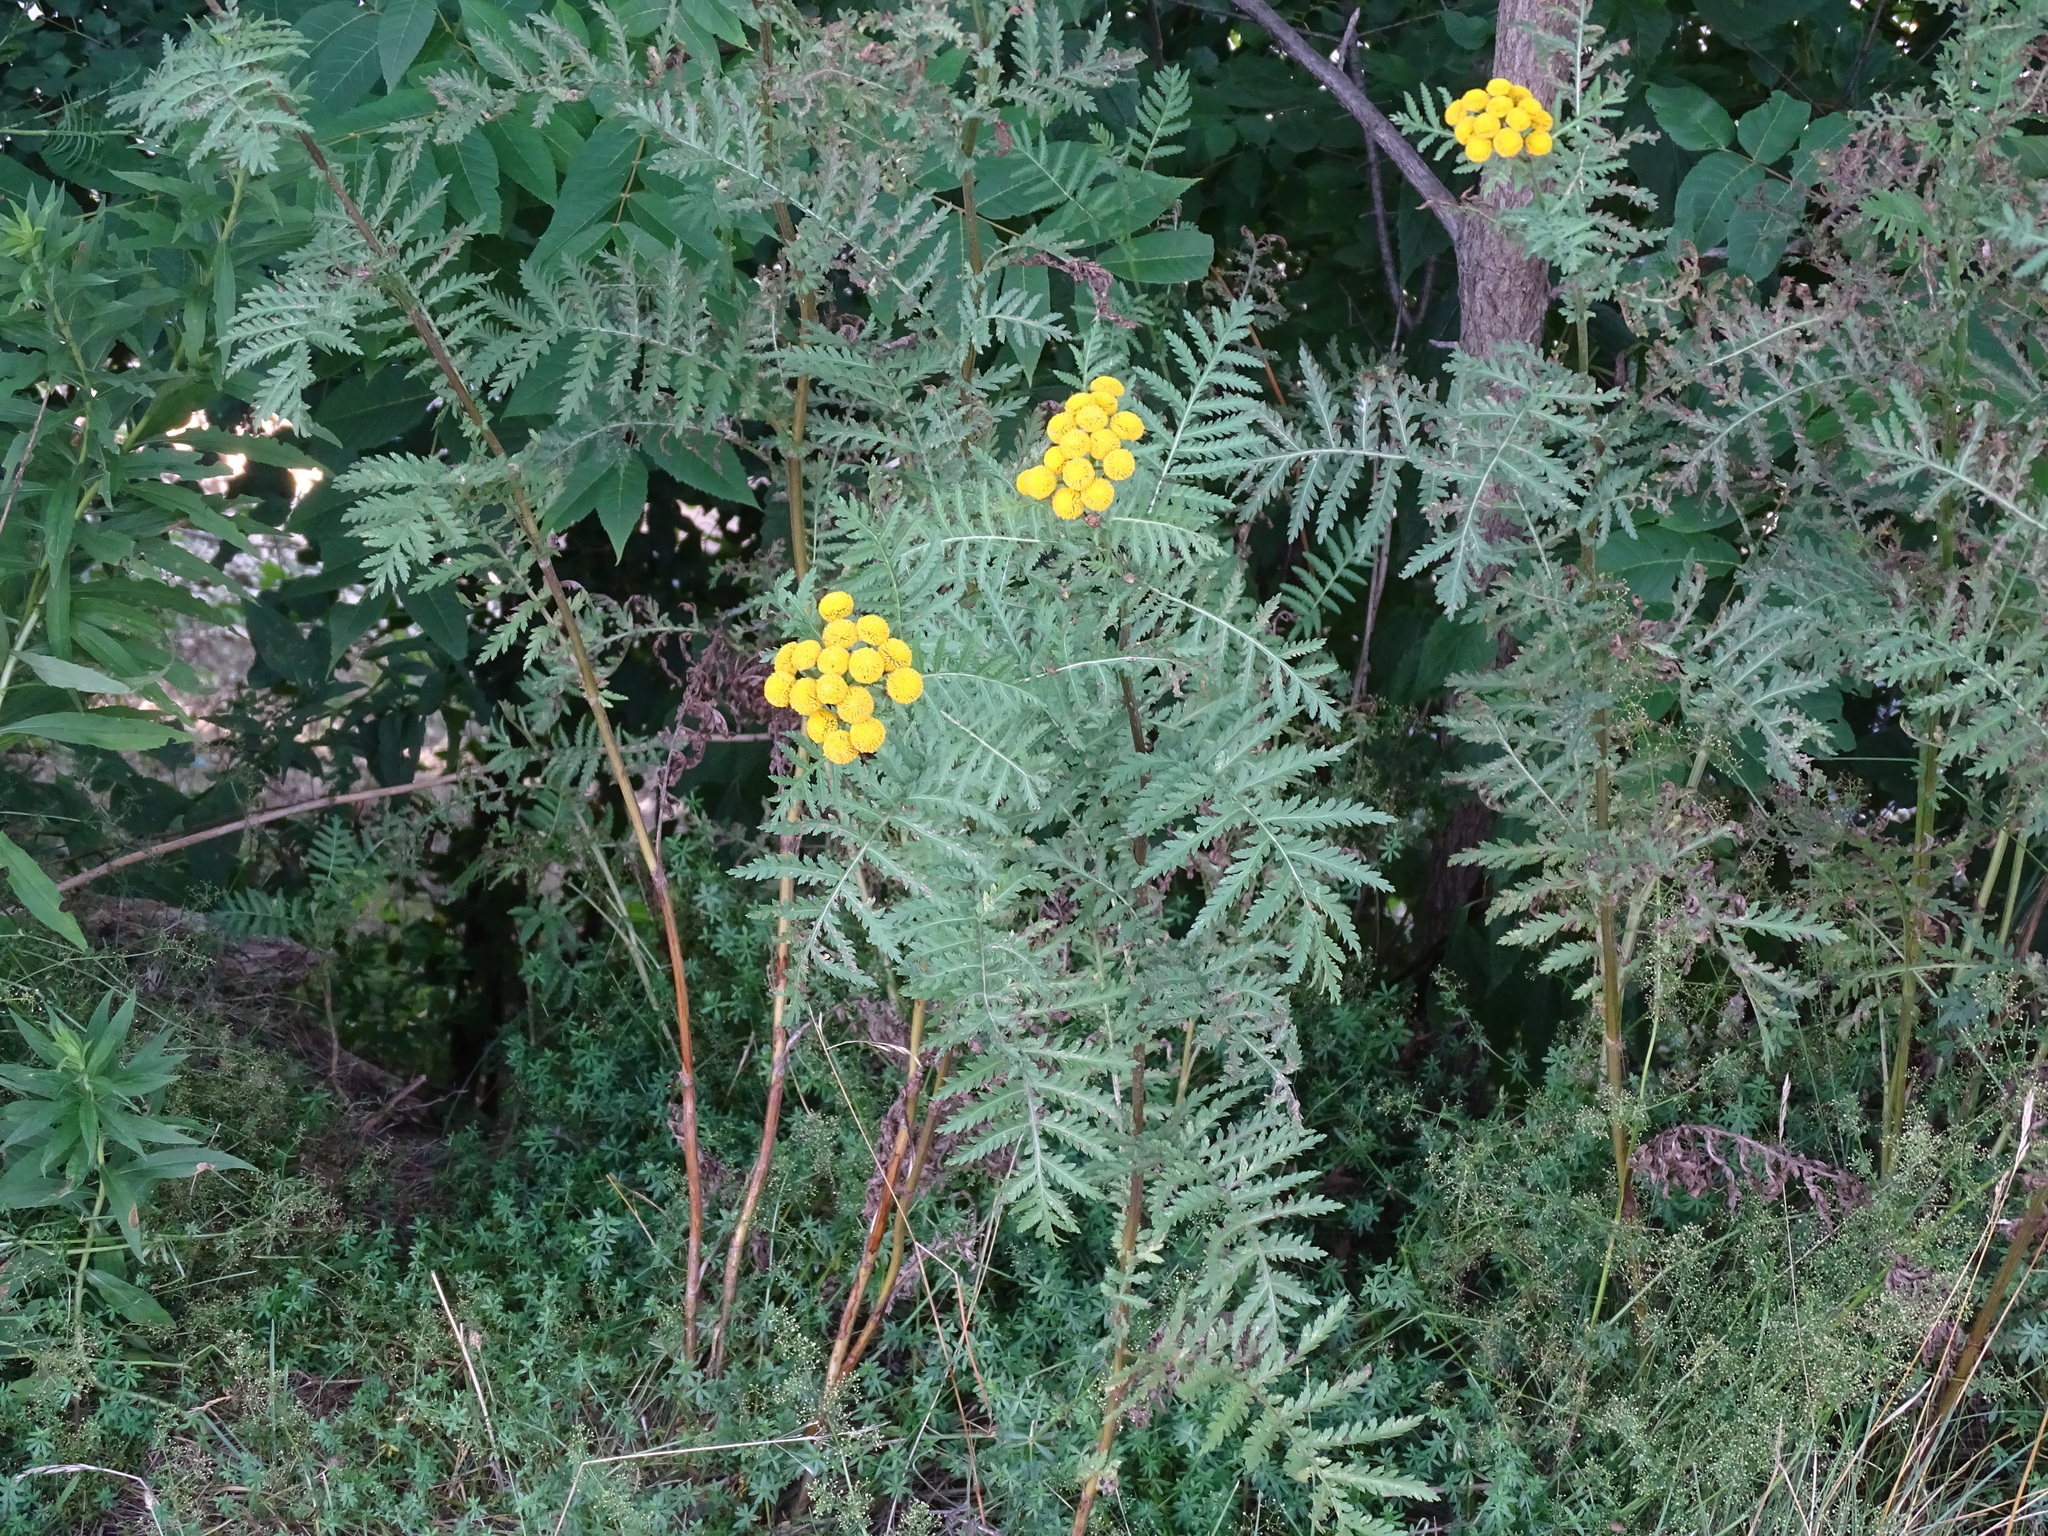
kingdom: Plantae
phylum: Tracheophyta
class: Magnoliopsida
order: Asterales
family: Asteraceae
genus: Tanacetum
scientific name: Tanacetum vulgare
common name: Common tansy
